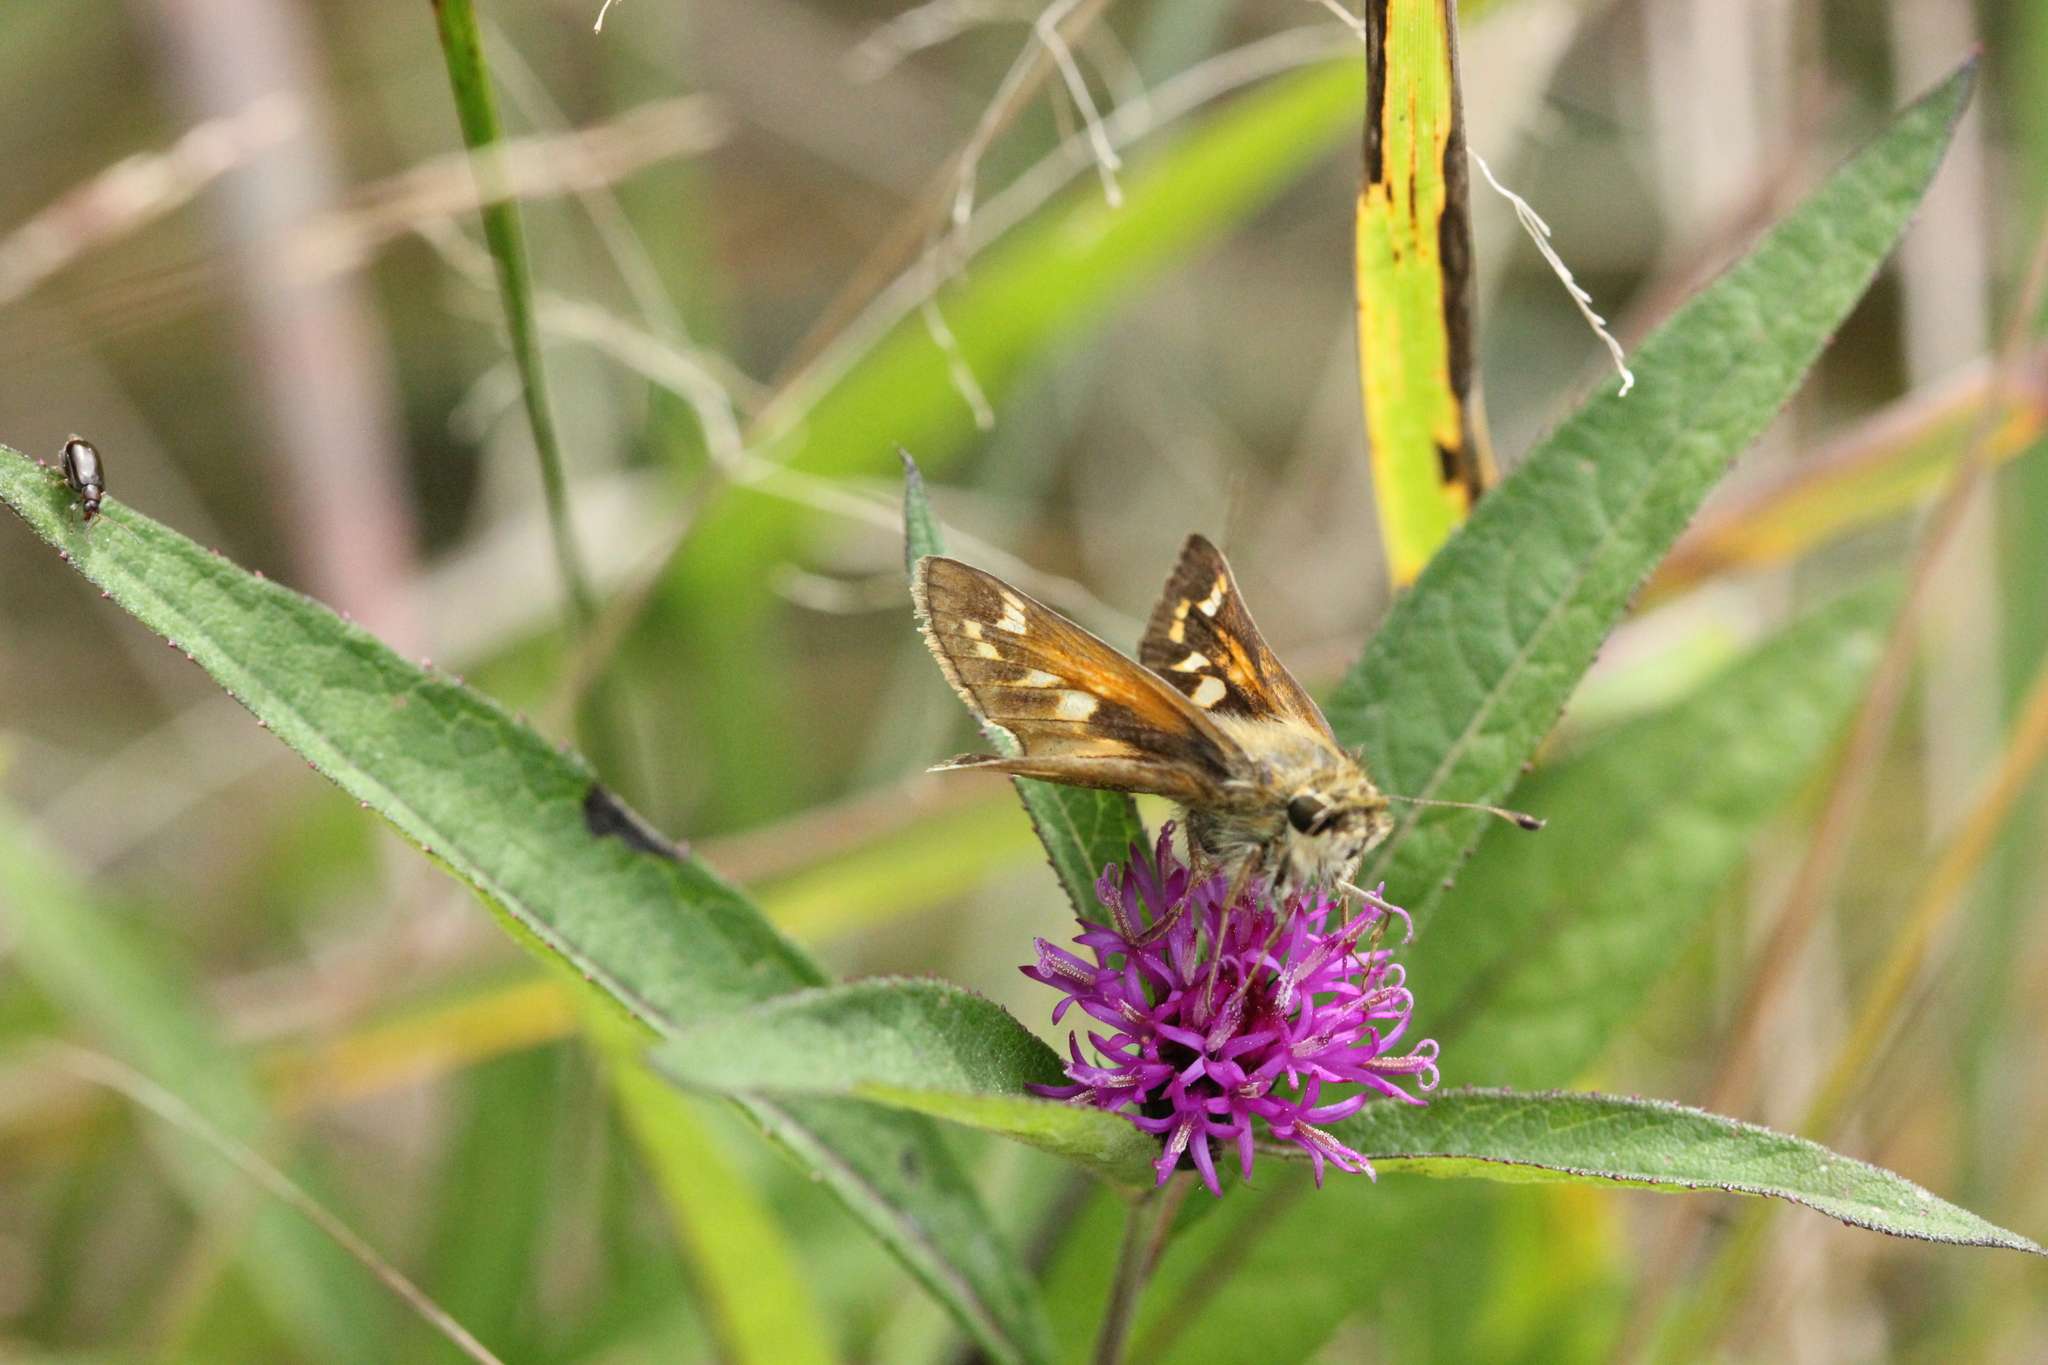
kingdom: Animalia
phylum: Arthropoda
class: Insecta
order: Lepidoptera
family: Hesperiidae
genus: Atalopedes
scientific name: Atalopedes
